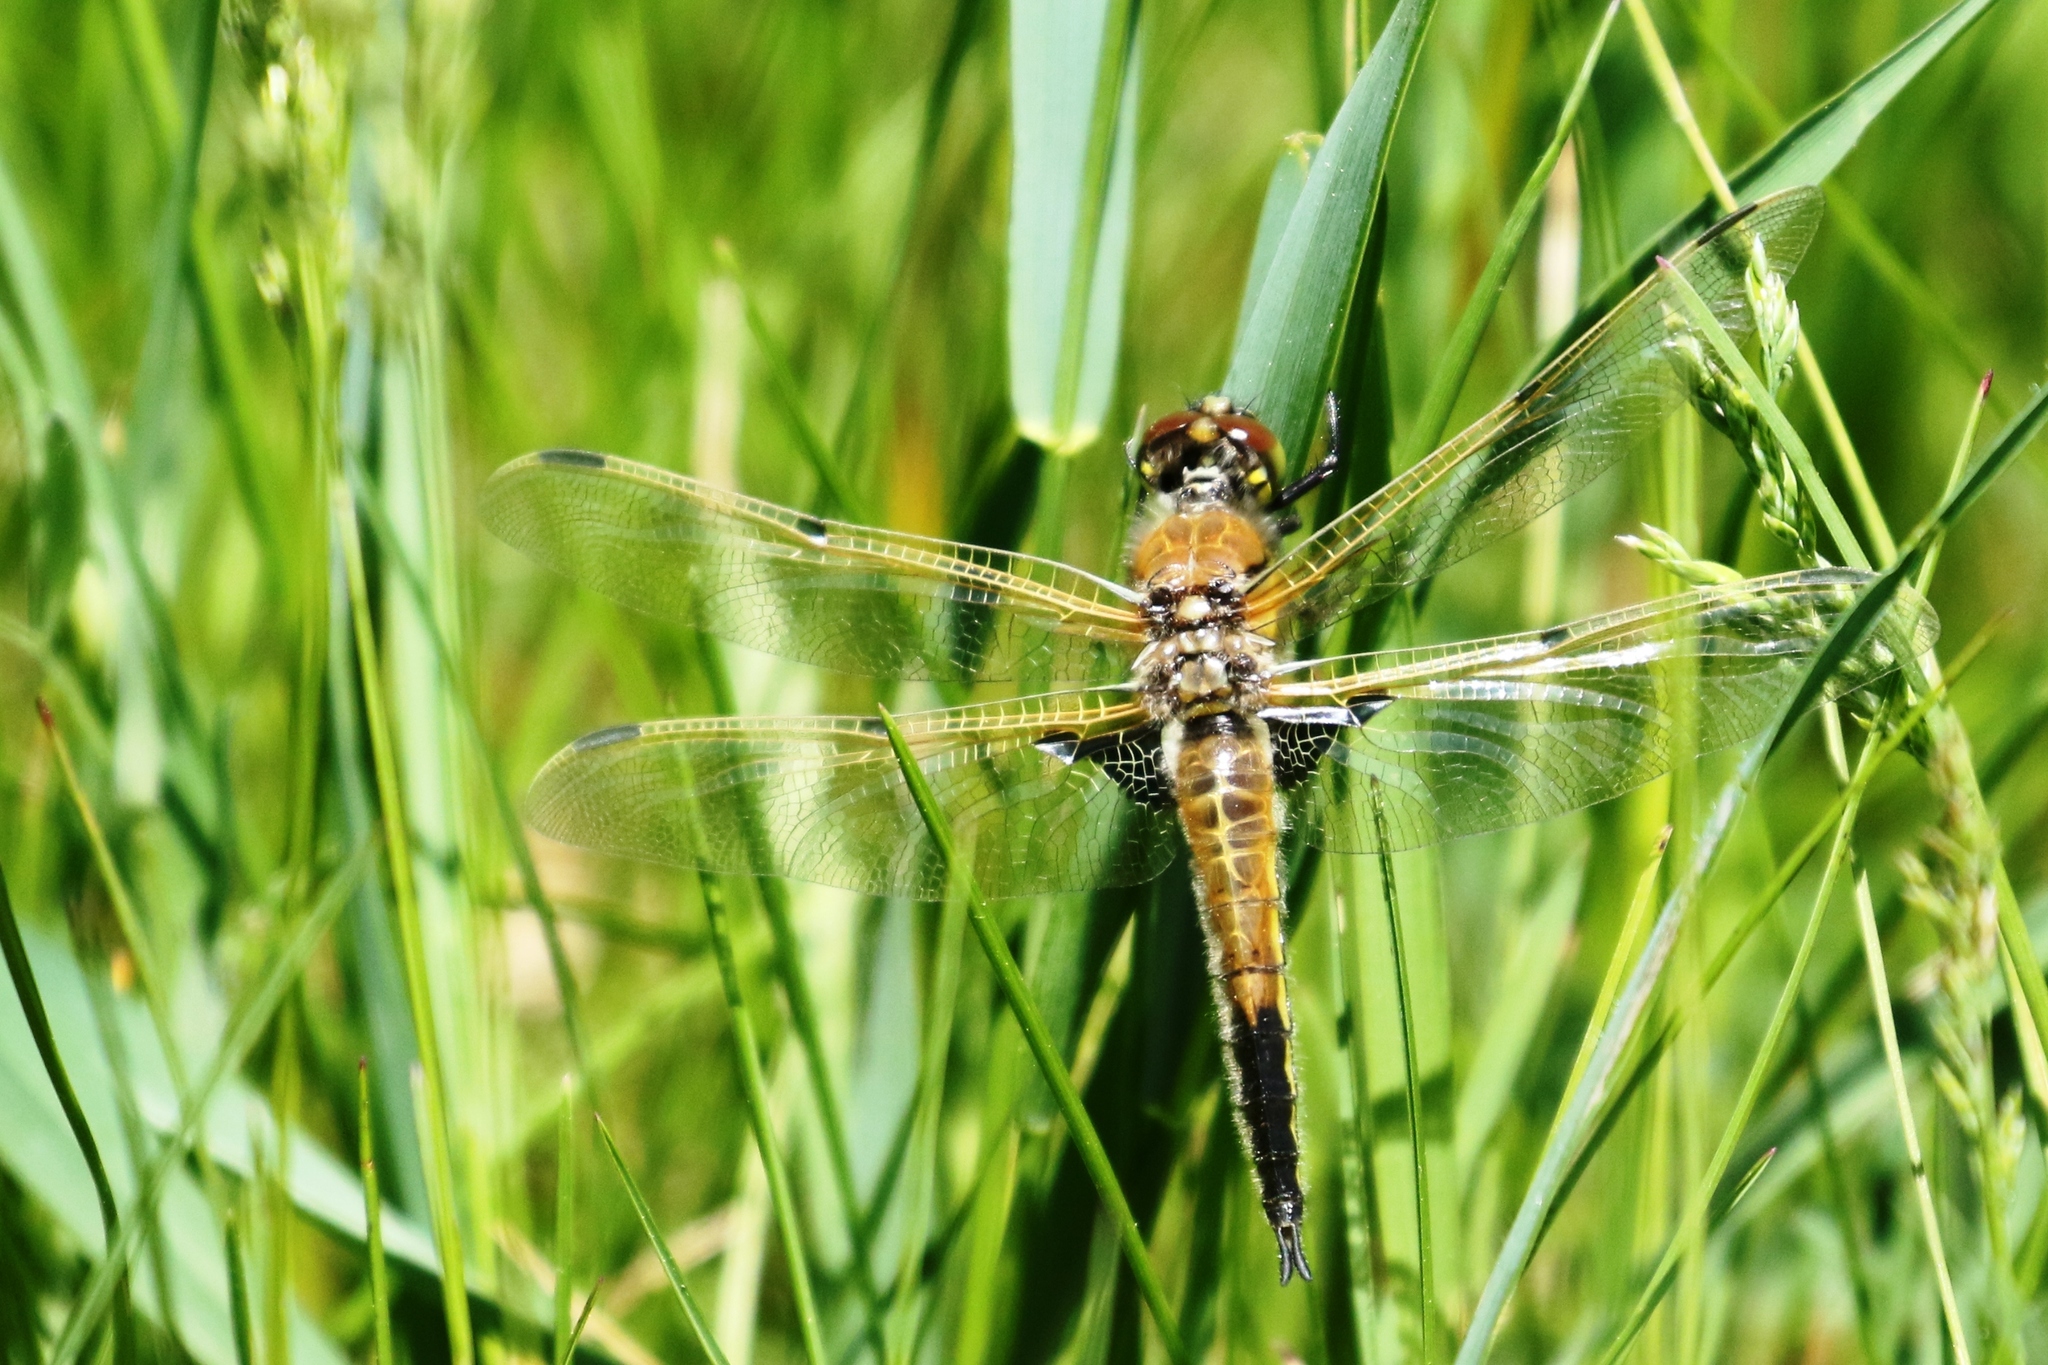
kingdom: Animalia
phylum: Arthropoda
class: Insecta
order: Odonata
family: Libellulidae
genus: Libellula
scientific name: Libellula quadrimaculata
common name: Four-spotted chaser
